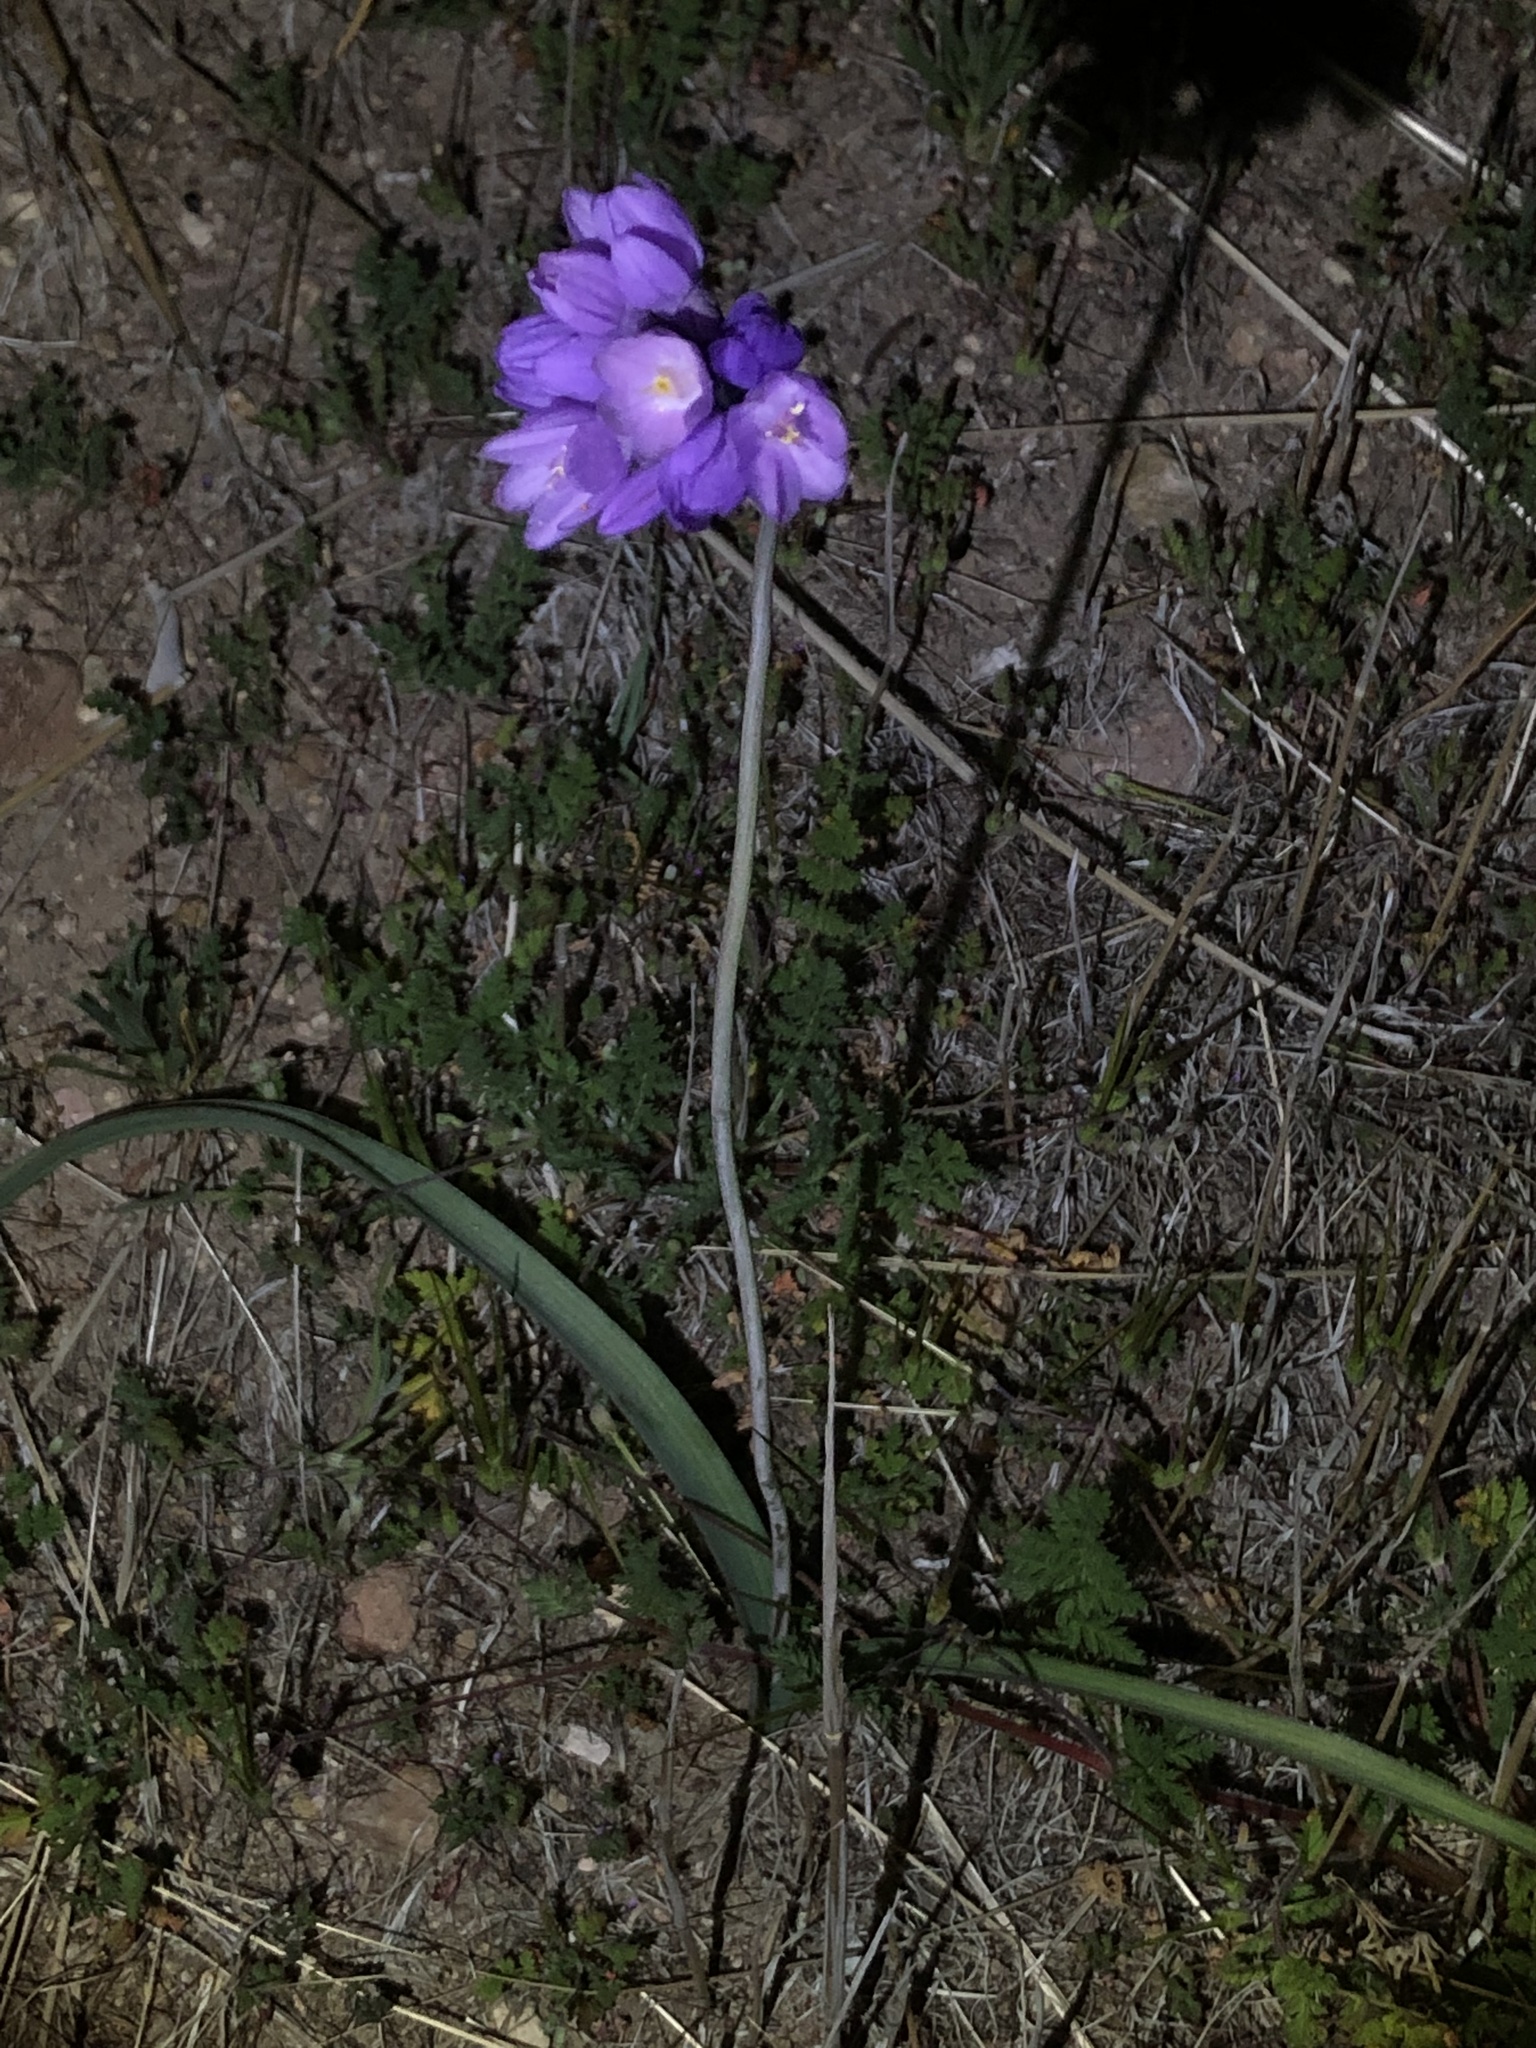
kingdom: Plantae
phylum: Tracheophyta
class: Liliopsida
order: Asparagales
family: Asparagaceae
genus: Dipterostemon
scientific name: Dipterostemon capitatus
